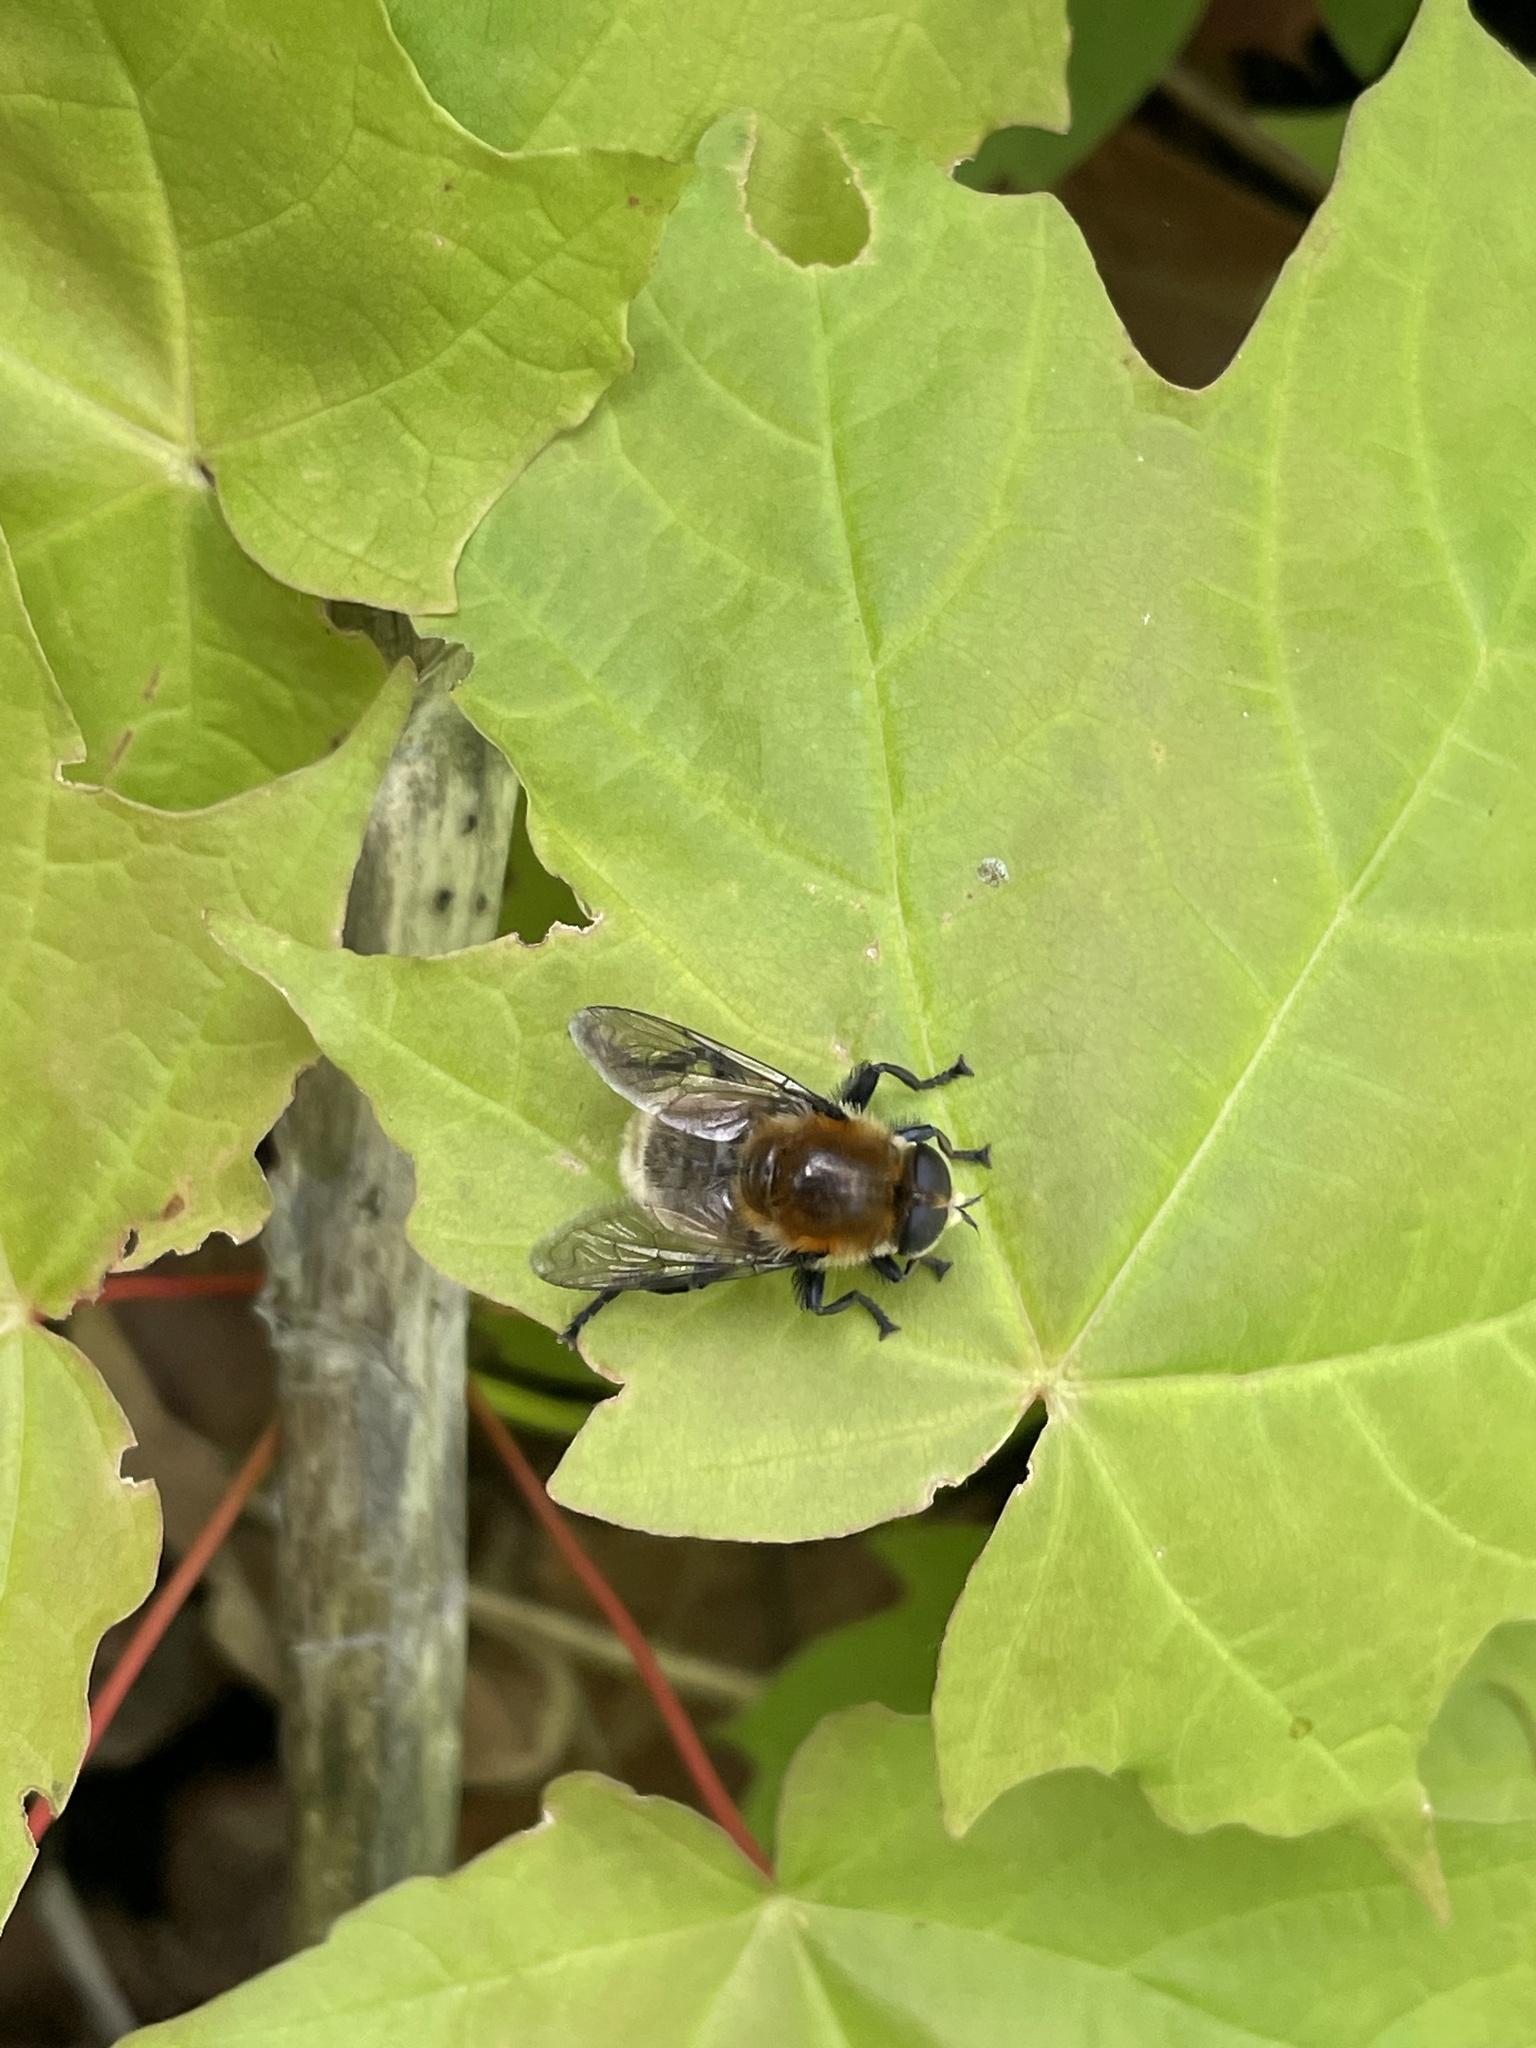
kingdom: Animalia
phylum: Arthropoda
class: Insecta
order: Diptera
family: Syrphidae
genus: Merodon
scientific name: Merodon equestris
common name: Greater bulb-fly
